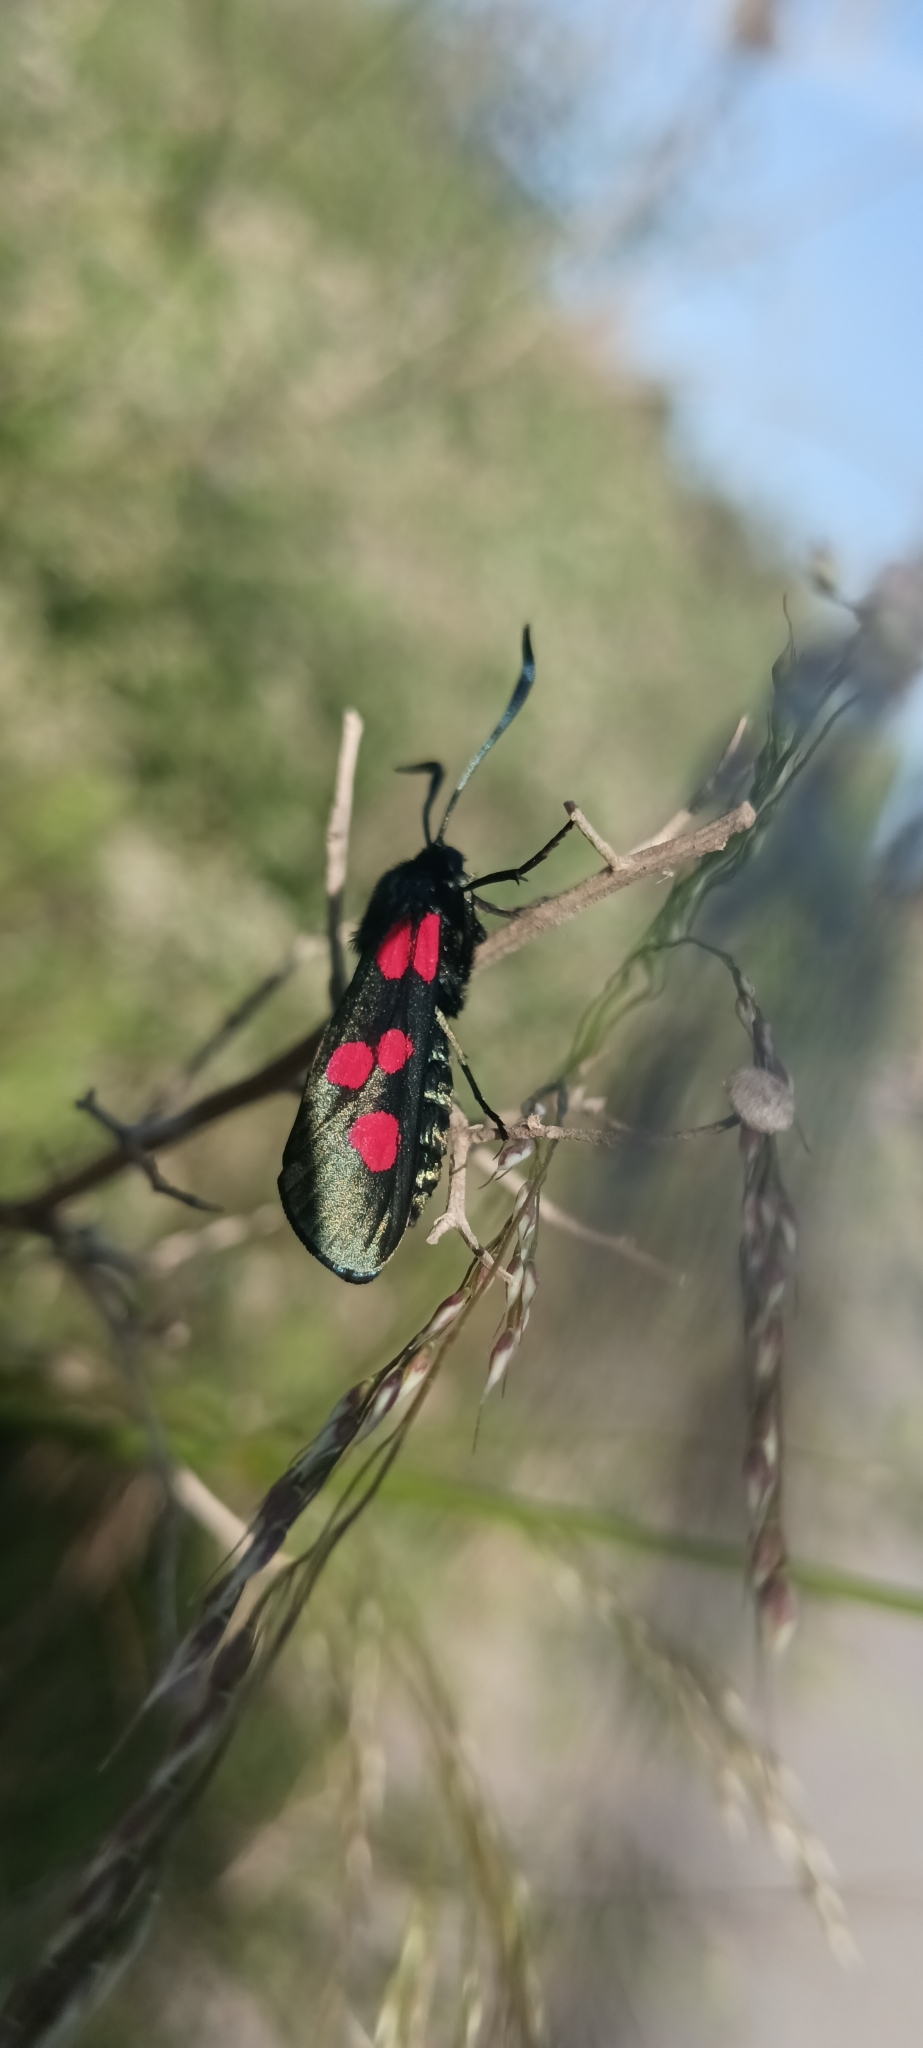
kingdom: Animalia
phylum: Arthropoda
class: Insecta
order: Lepidoptera
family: Zygaenidae
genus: Zygaena
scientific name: Zygaena trifolii
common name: Five-spot burnet
